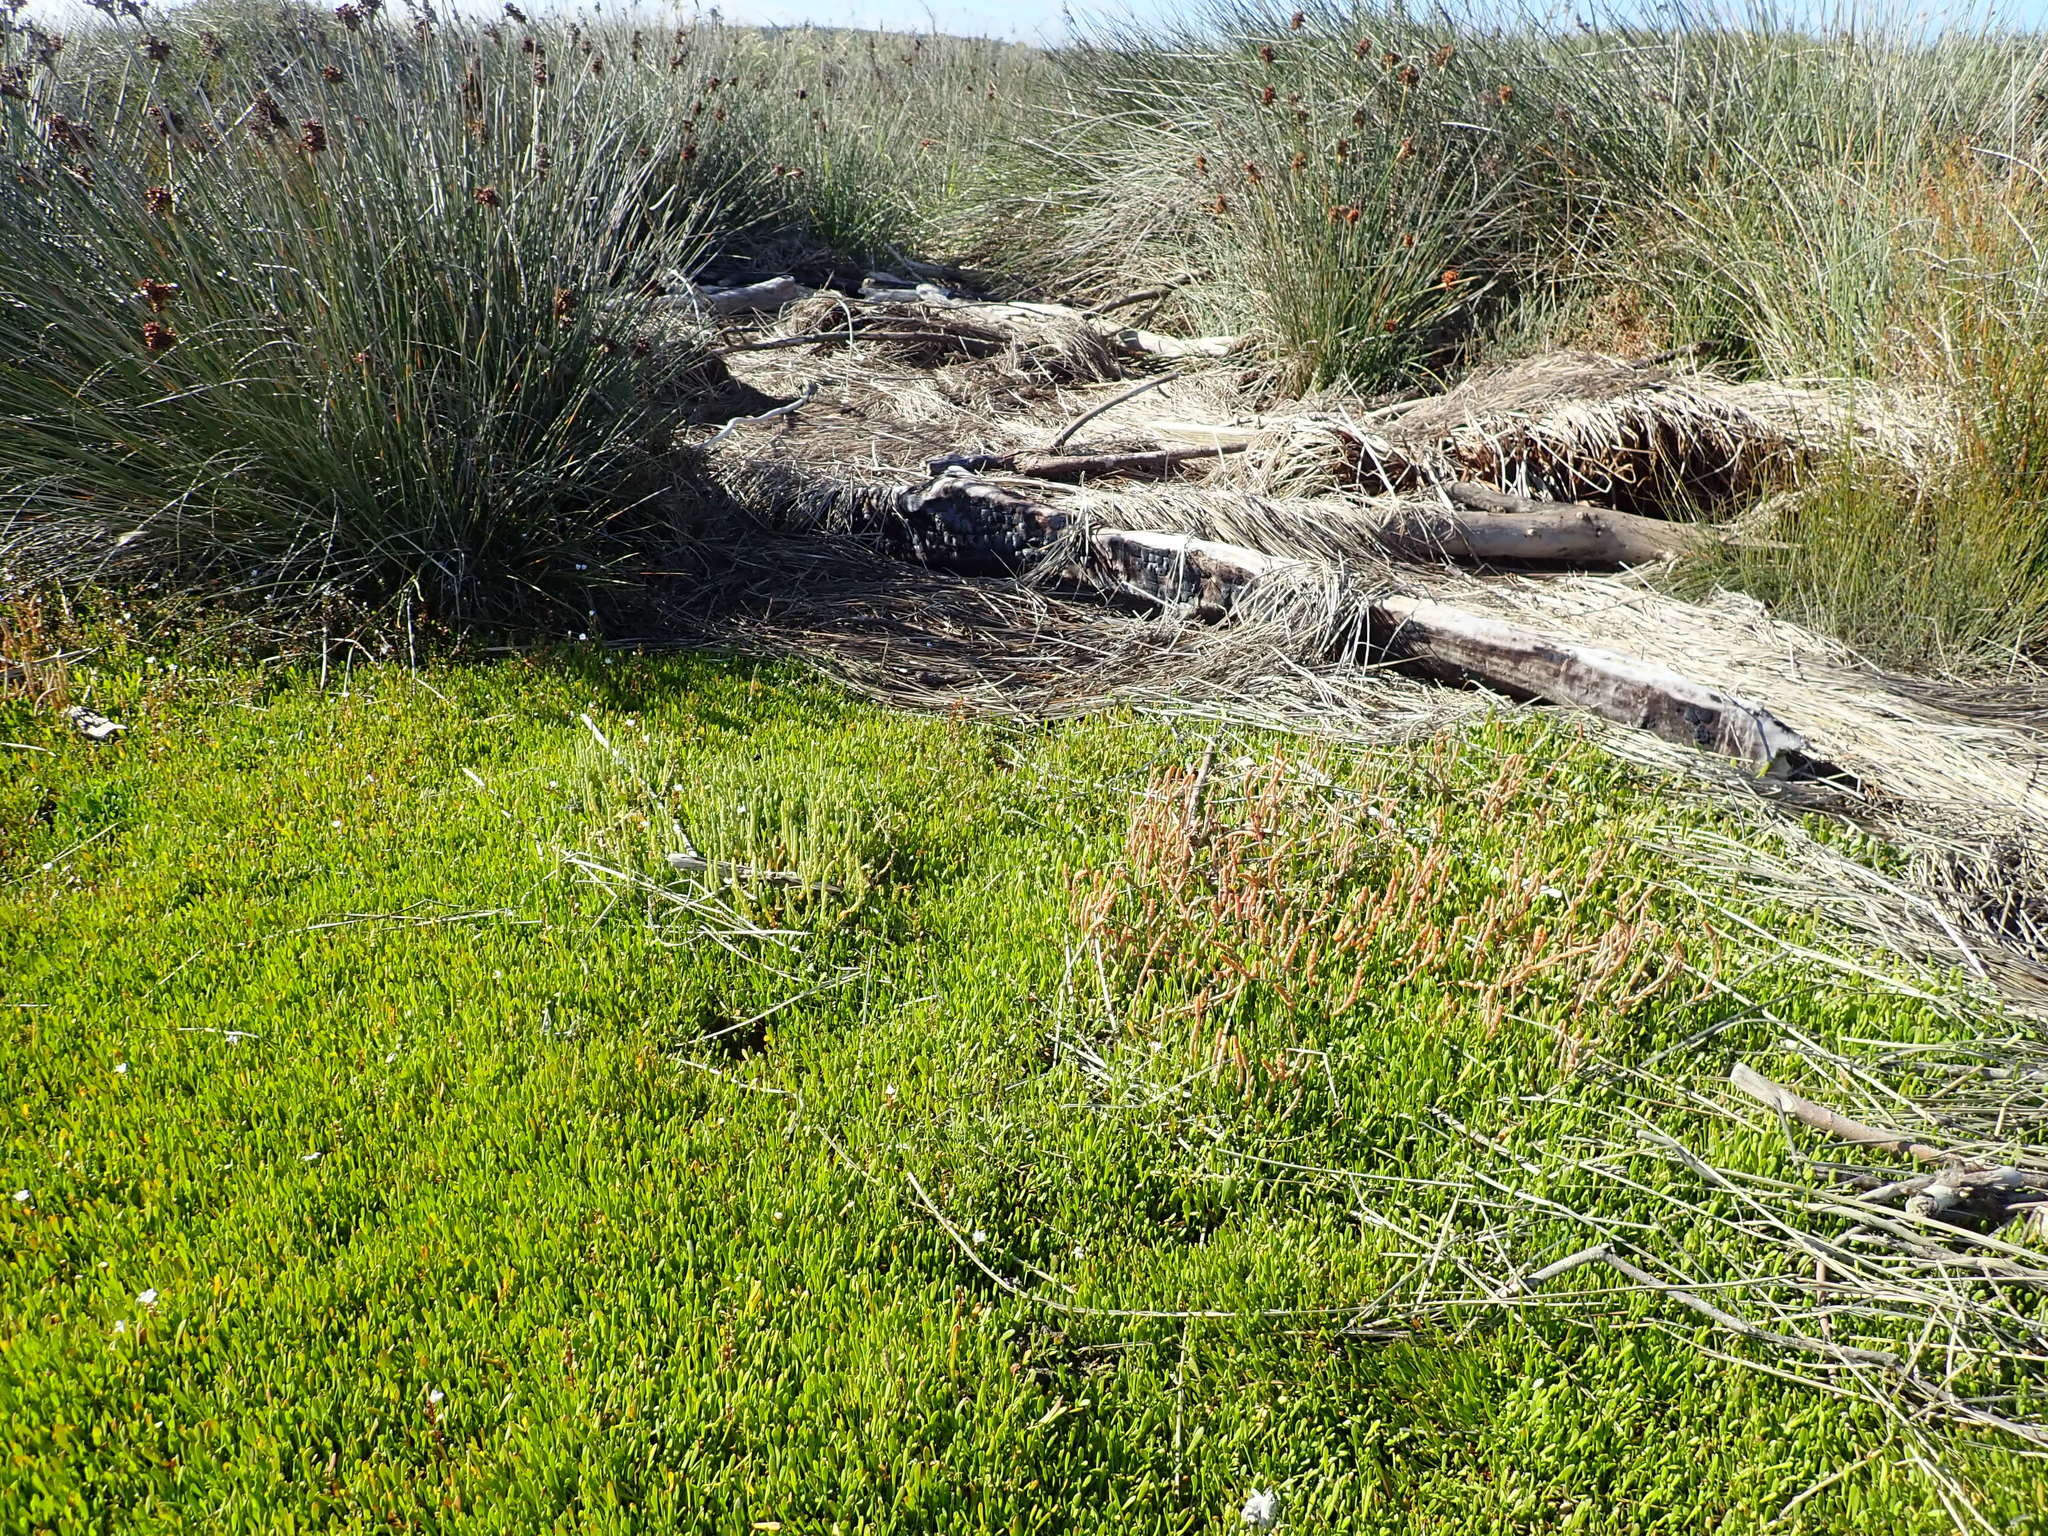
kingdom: Plantae
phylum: Tracheophyta
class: Magnoliopsida
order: Caryophyllales
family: Amaranthaceae
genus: Salicornia
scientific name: Salicornia quinqueflora
